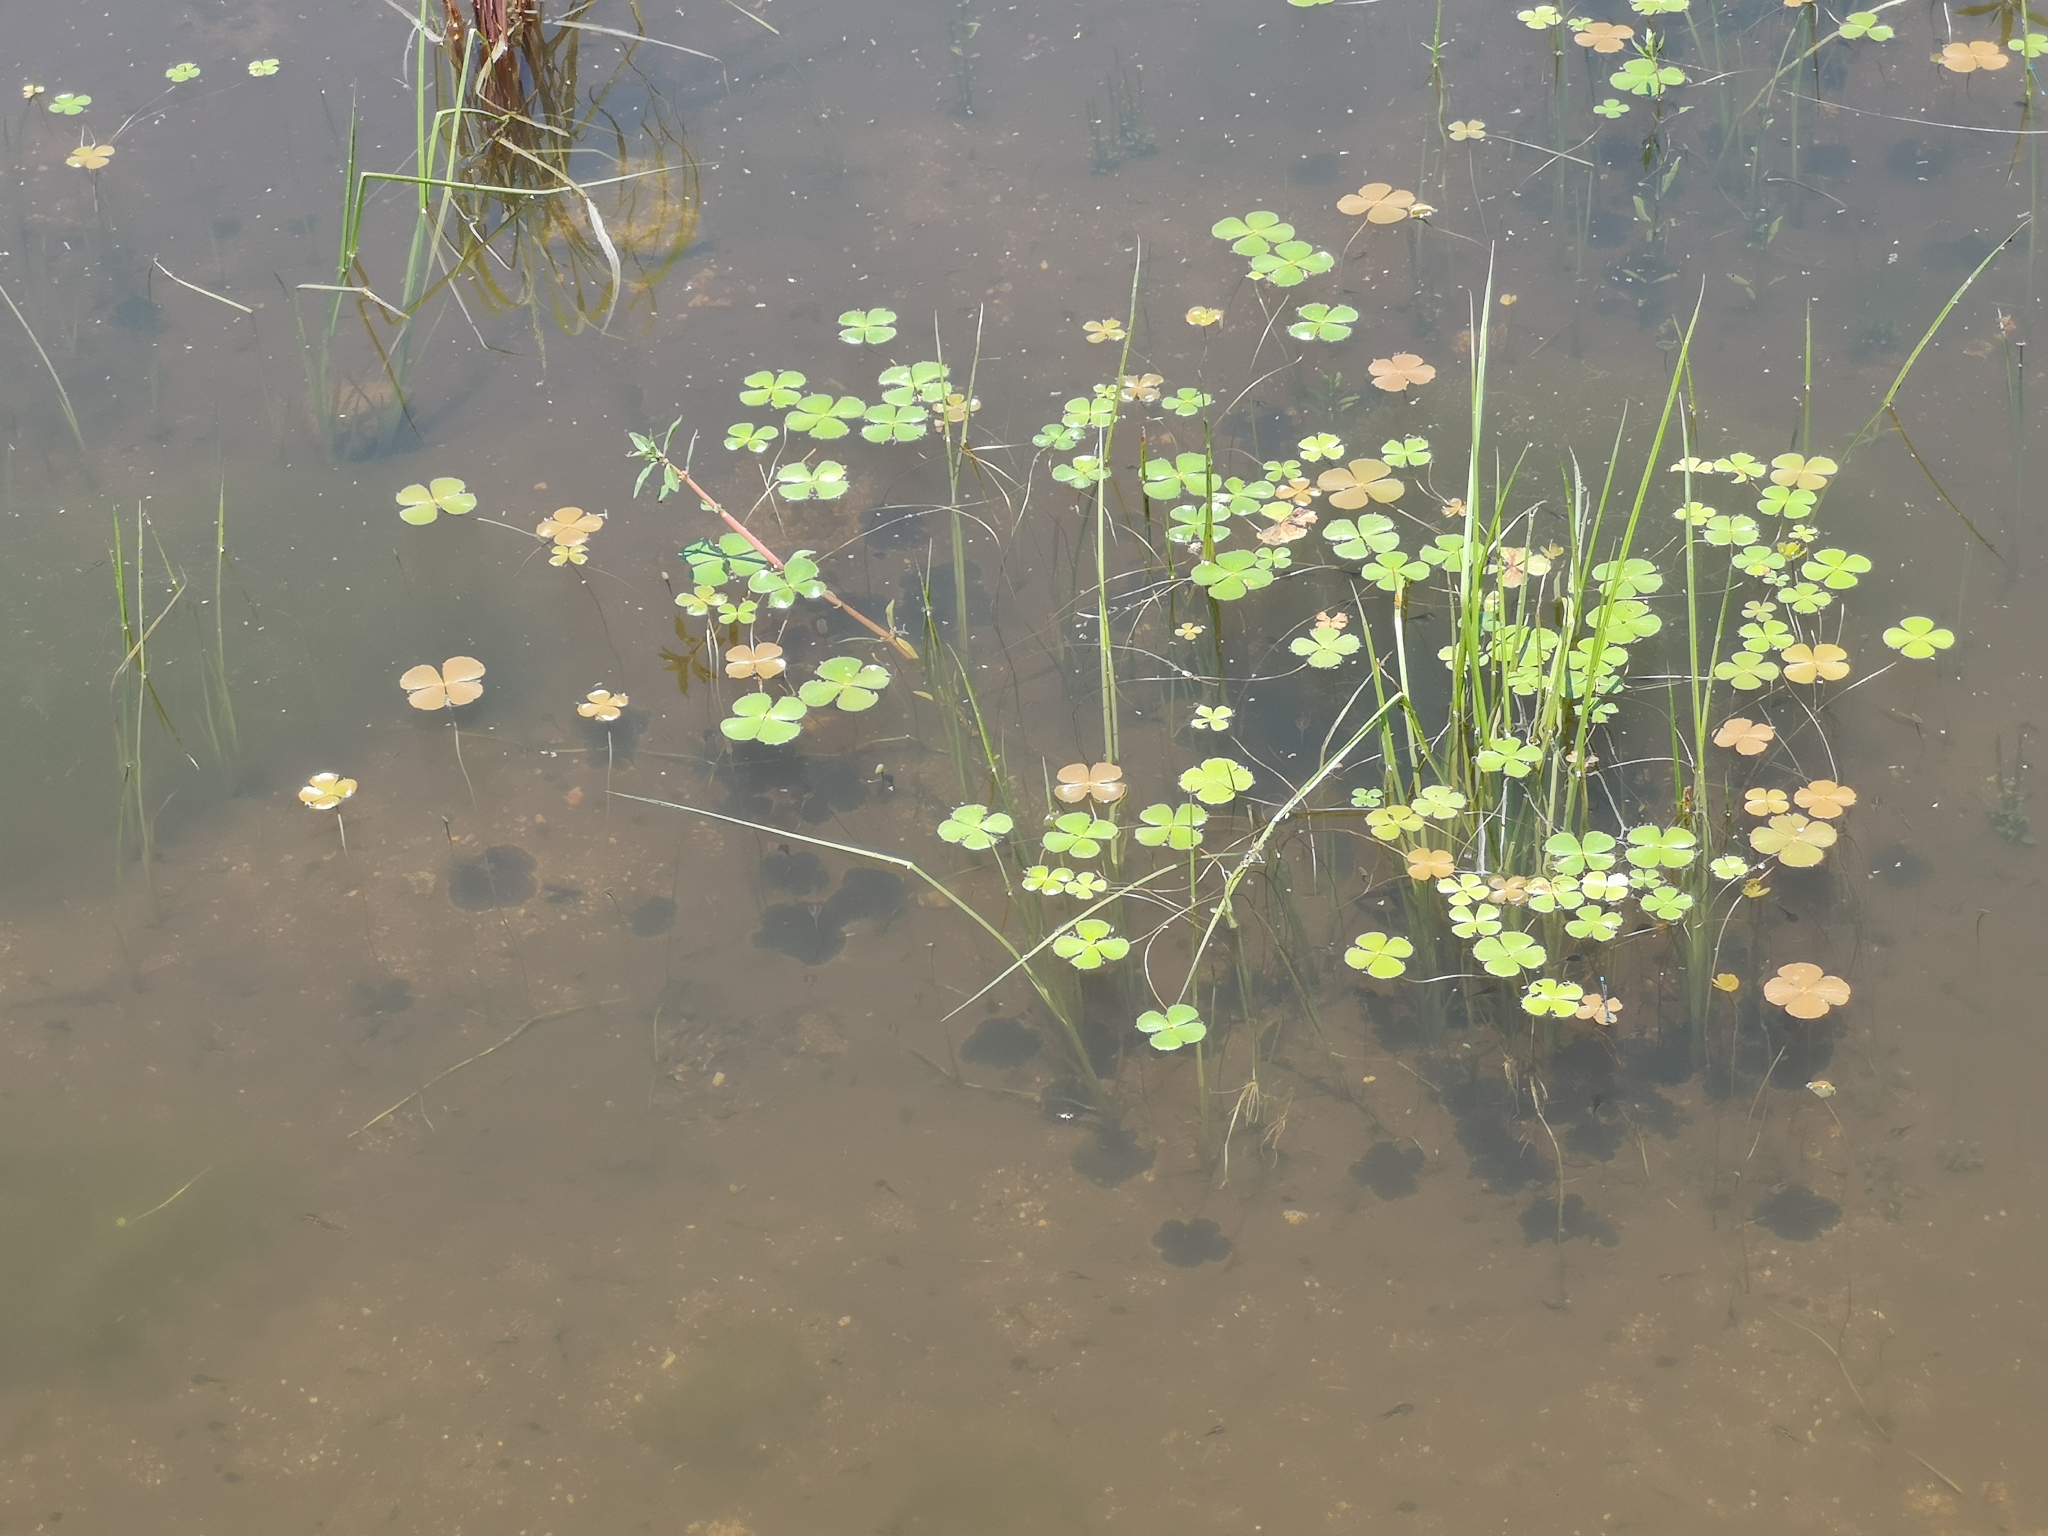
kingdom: Plantae
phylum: Tracheophyta
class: Polypodiopsida
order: Salviniales
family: Marsileaceae
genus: Marsilea
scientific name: Marsilea macrocarpa
